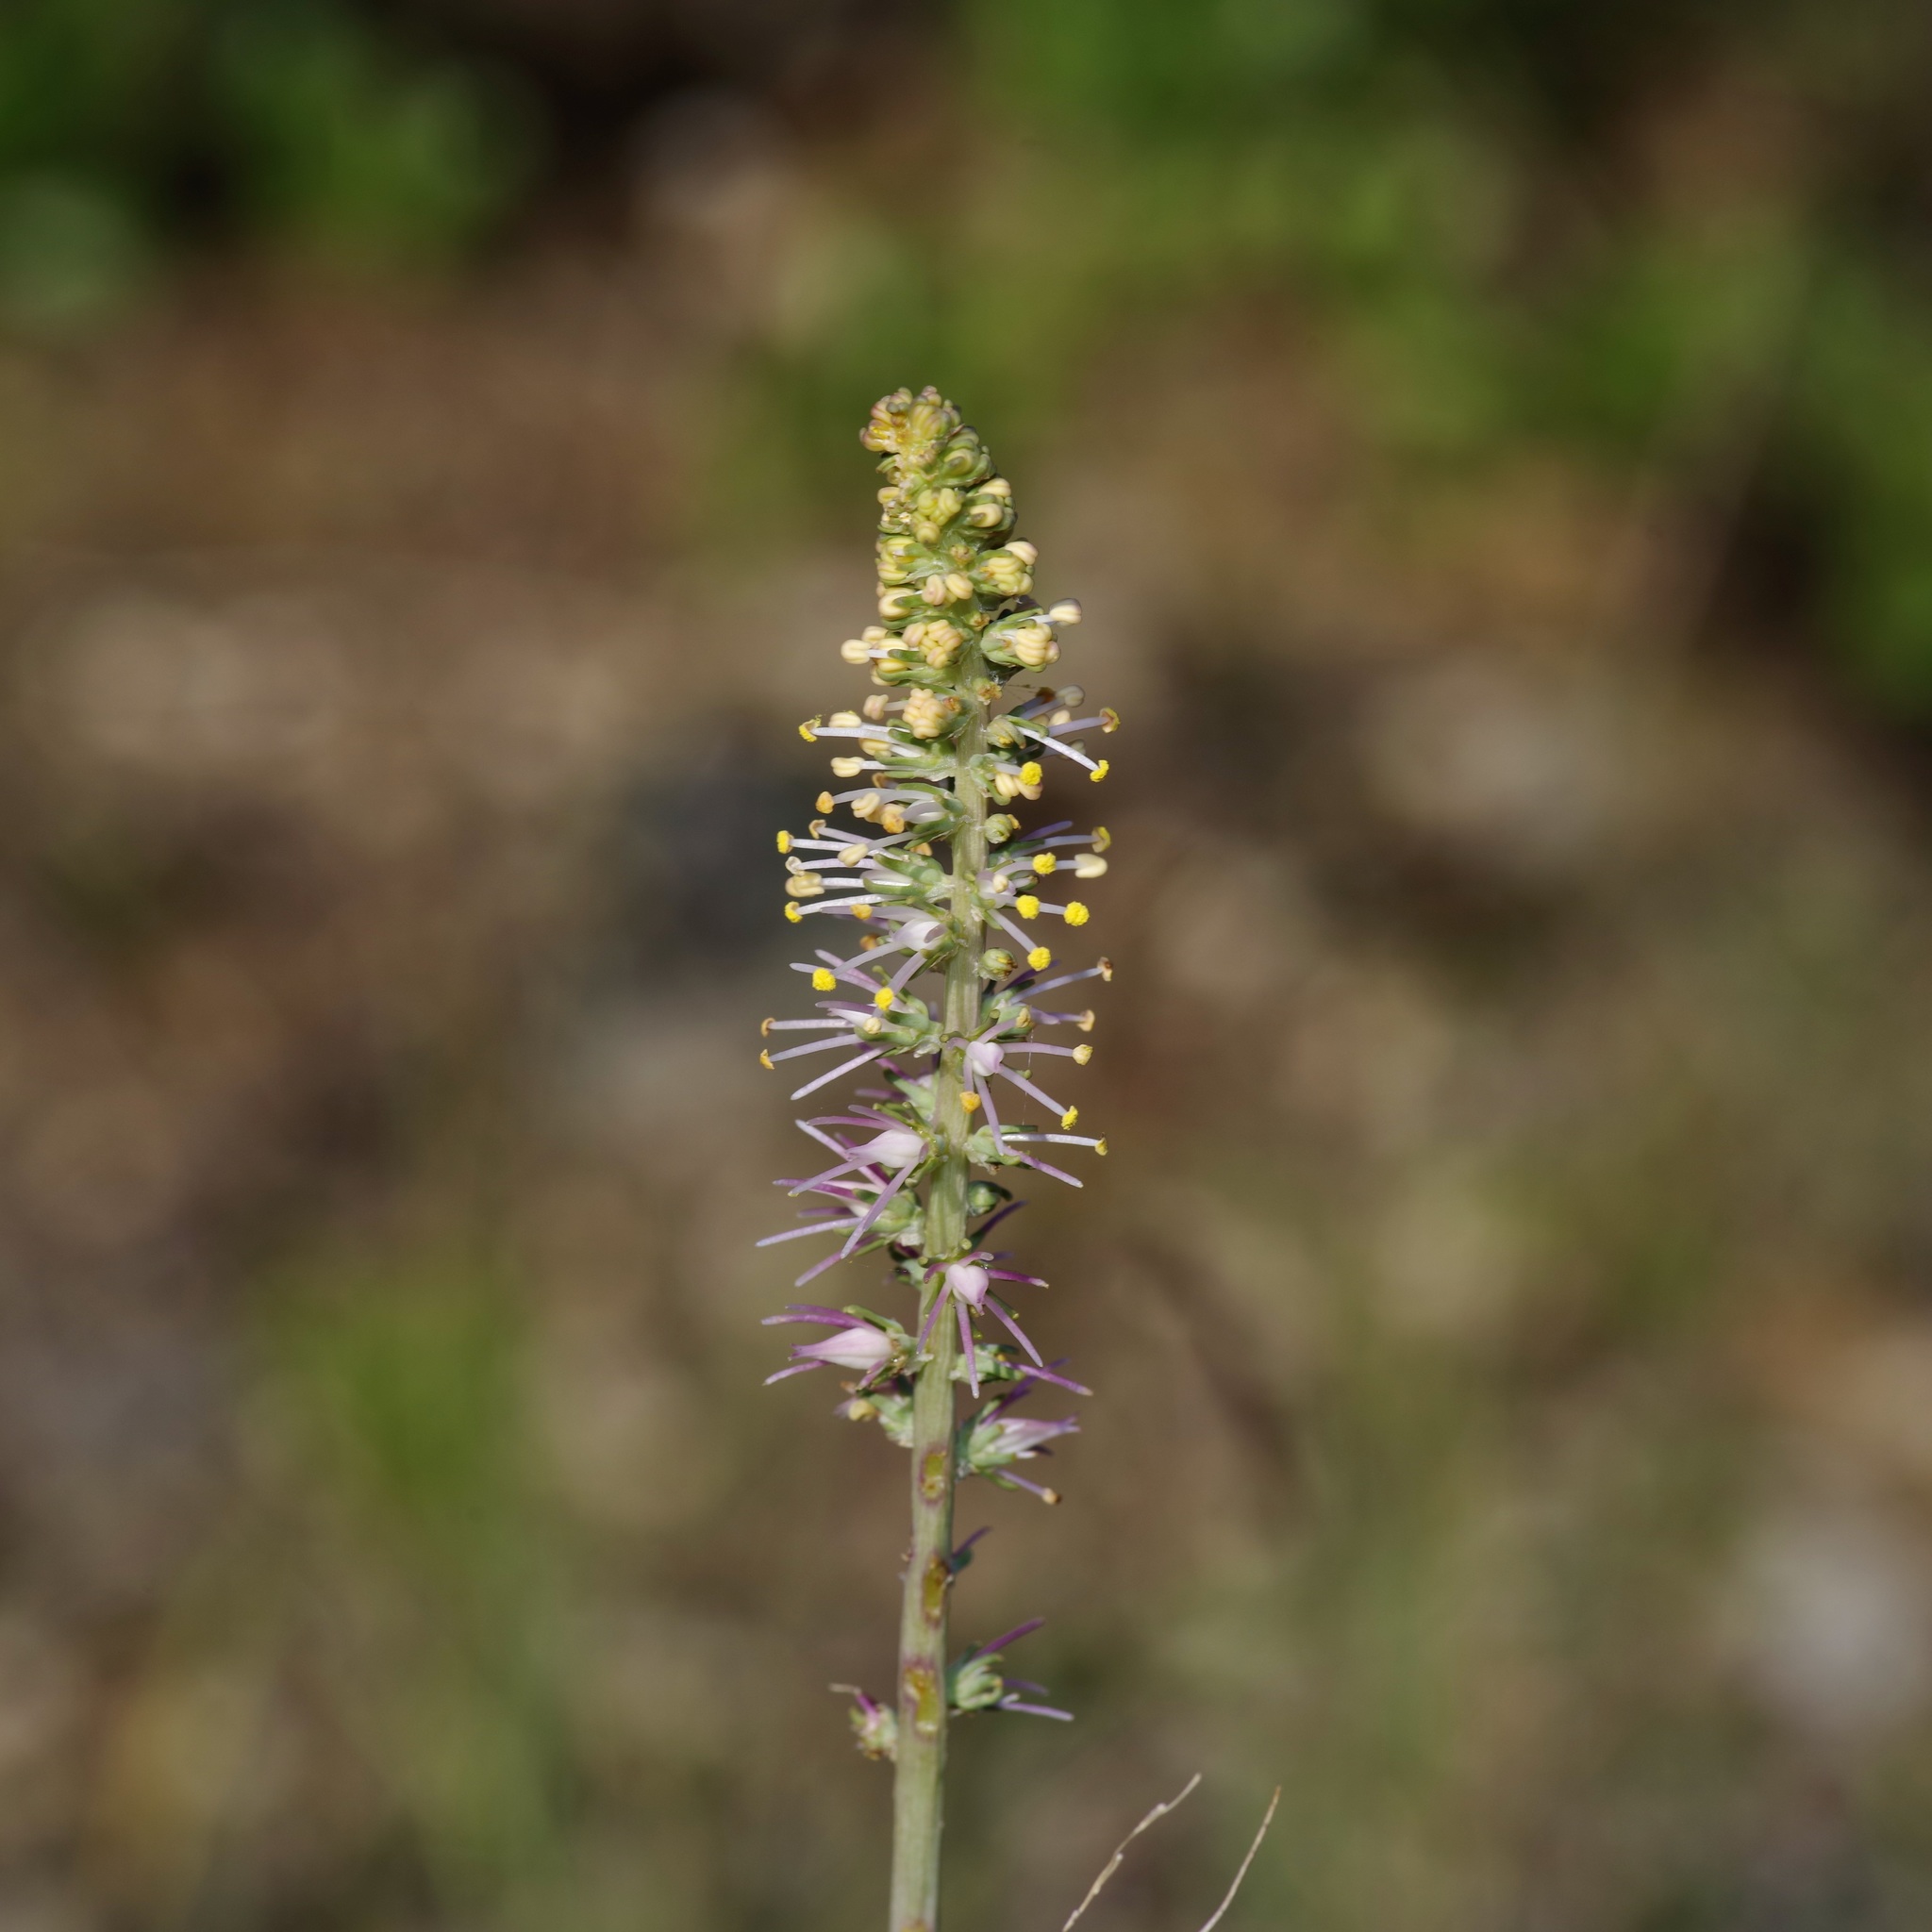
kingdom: Plantae
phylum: Tracheophyta
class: Liliopsida
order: Liliales
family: Melanthiaceae
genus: Schoenocaulon
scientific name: Schoenocaulon texanum
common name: Texas feather-shank
